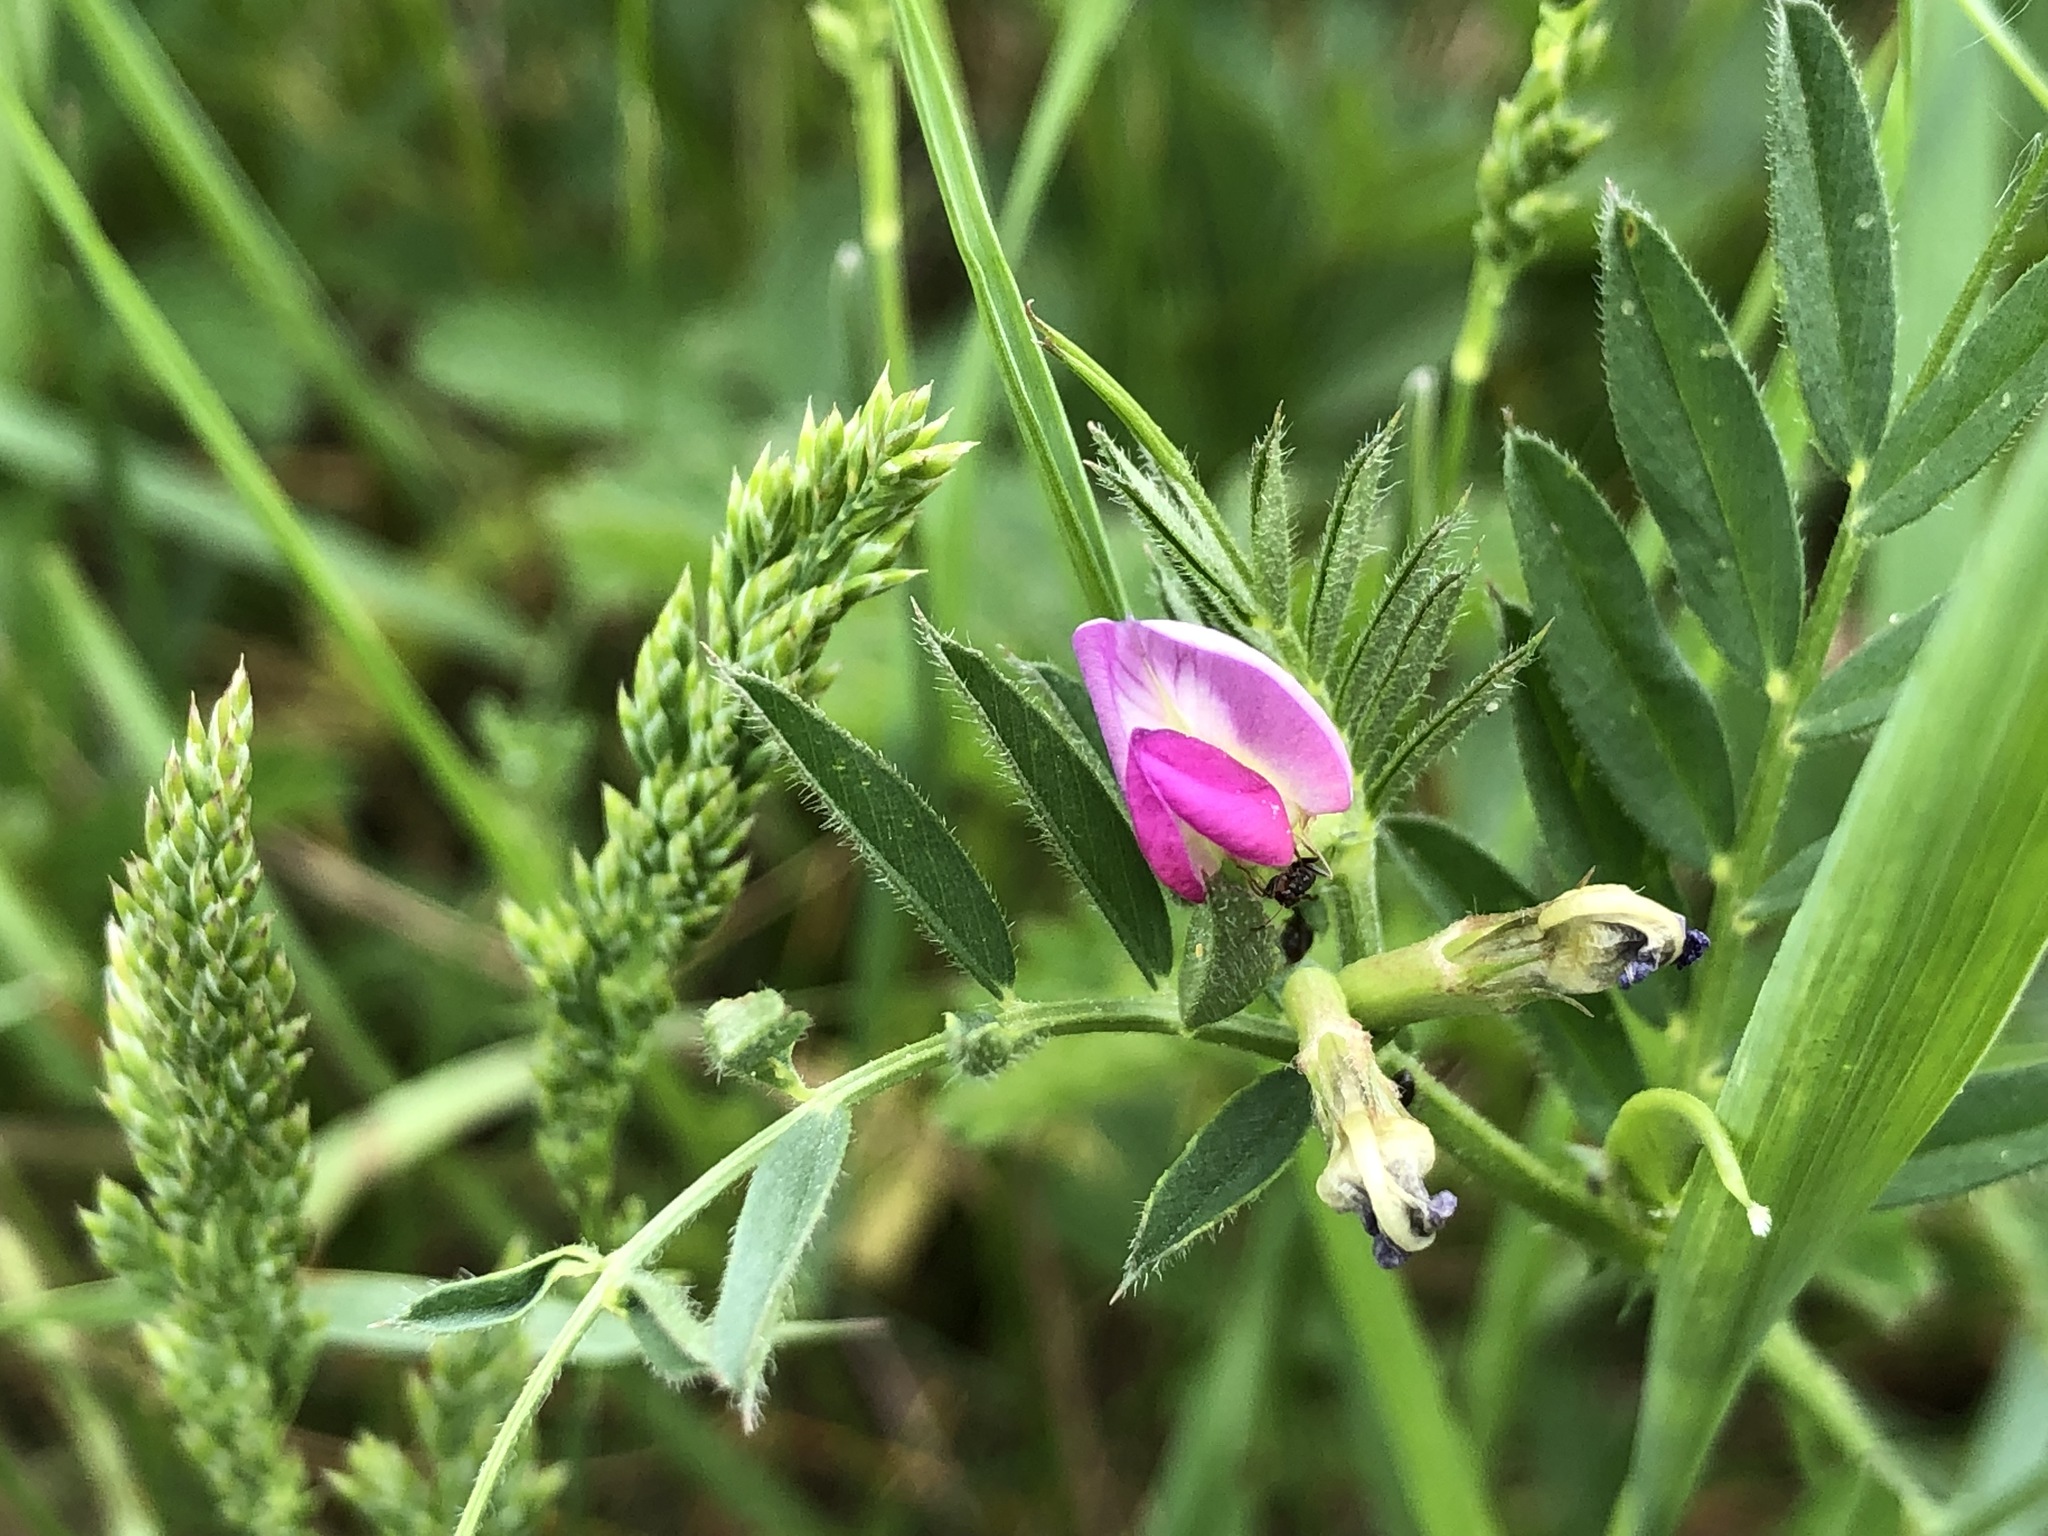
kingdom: Plantae
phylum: Tracheophyta
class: Magnoliopsida
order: Fabales
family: Fabaceae
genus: Vicia
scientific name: Vicia sativa
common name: Garden vetch
